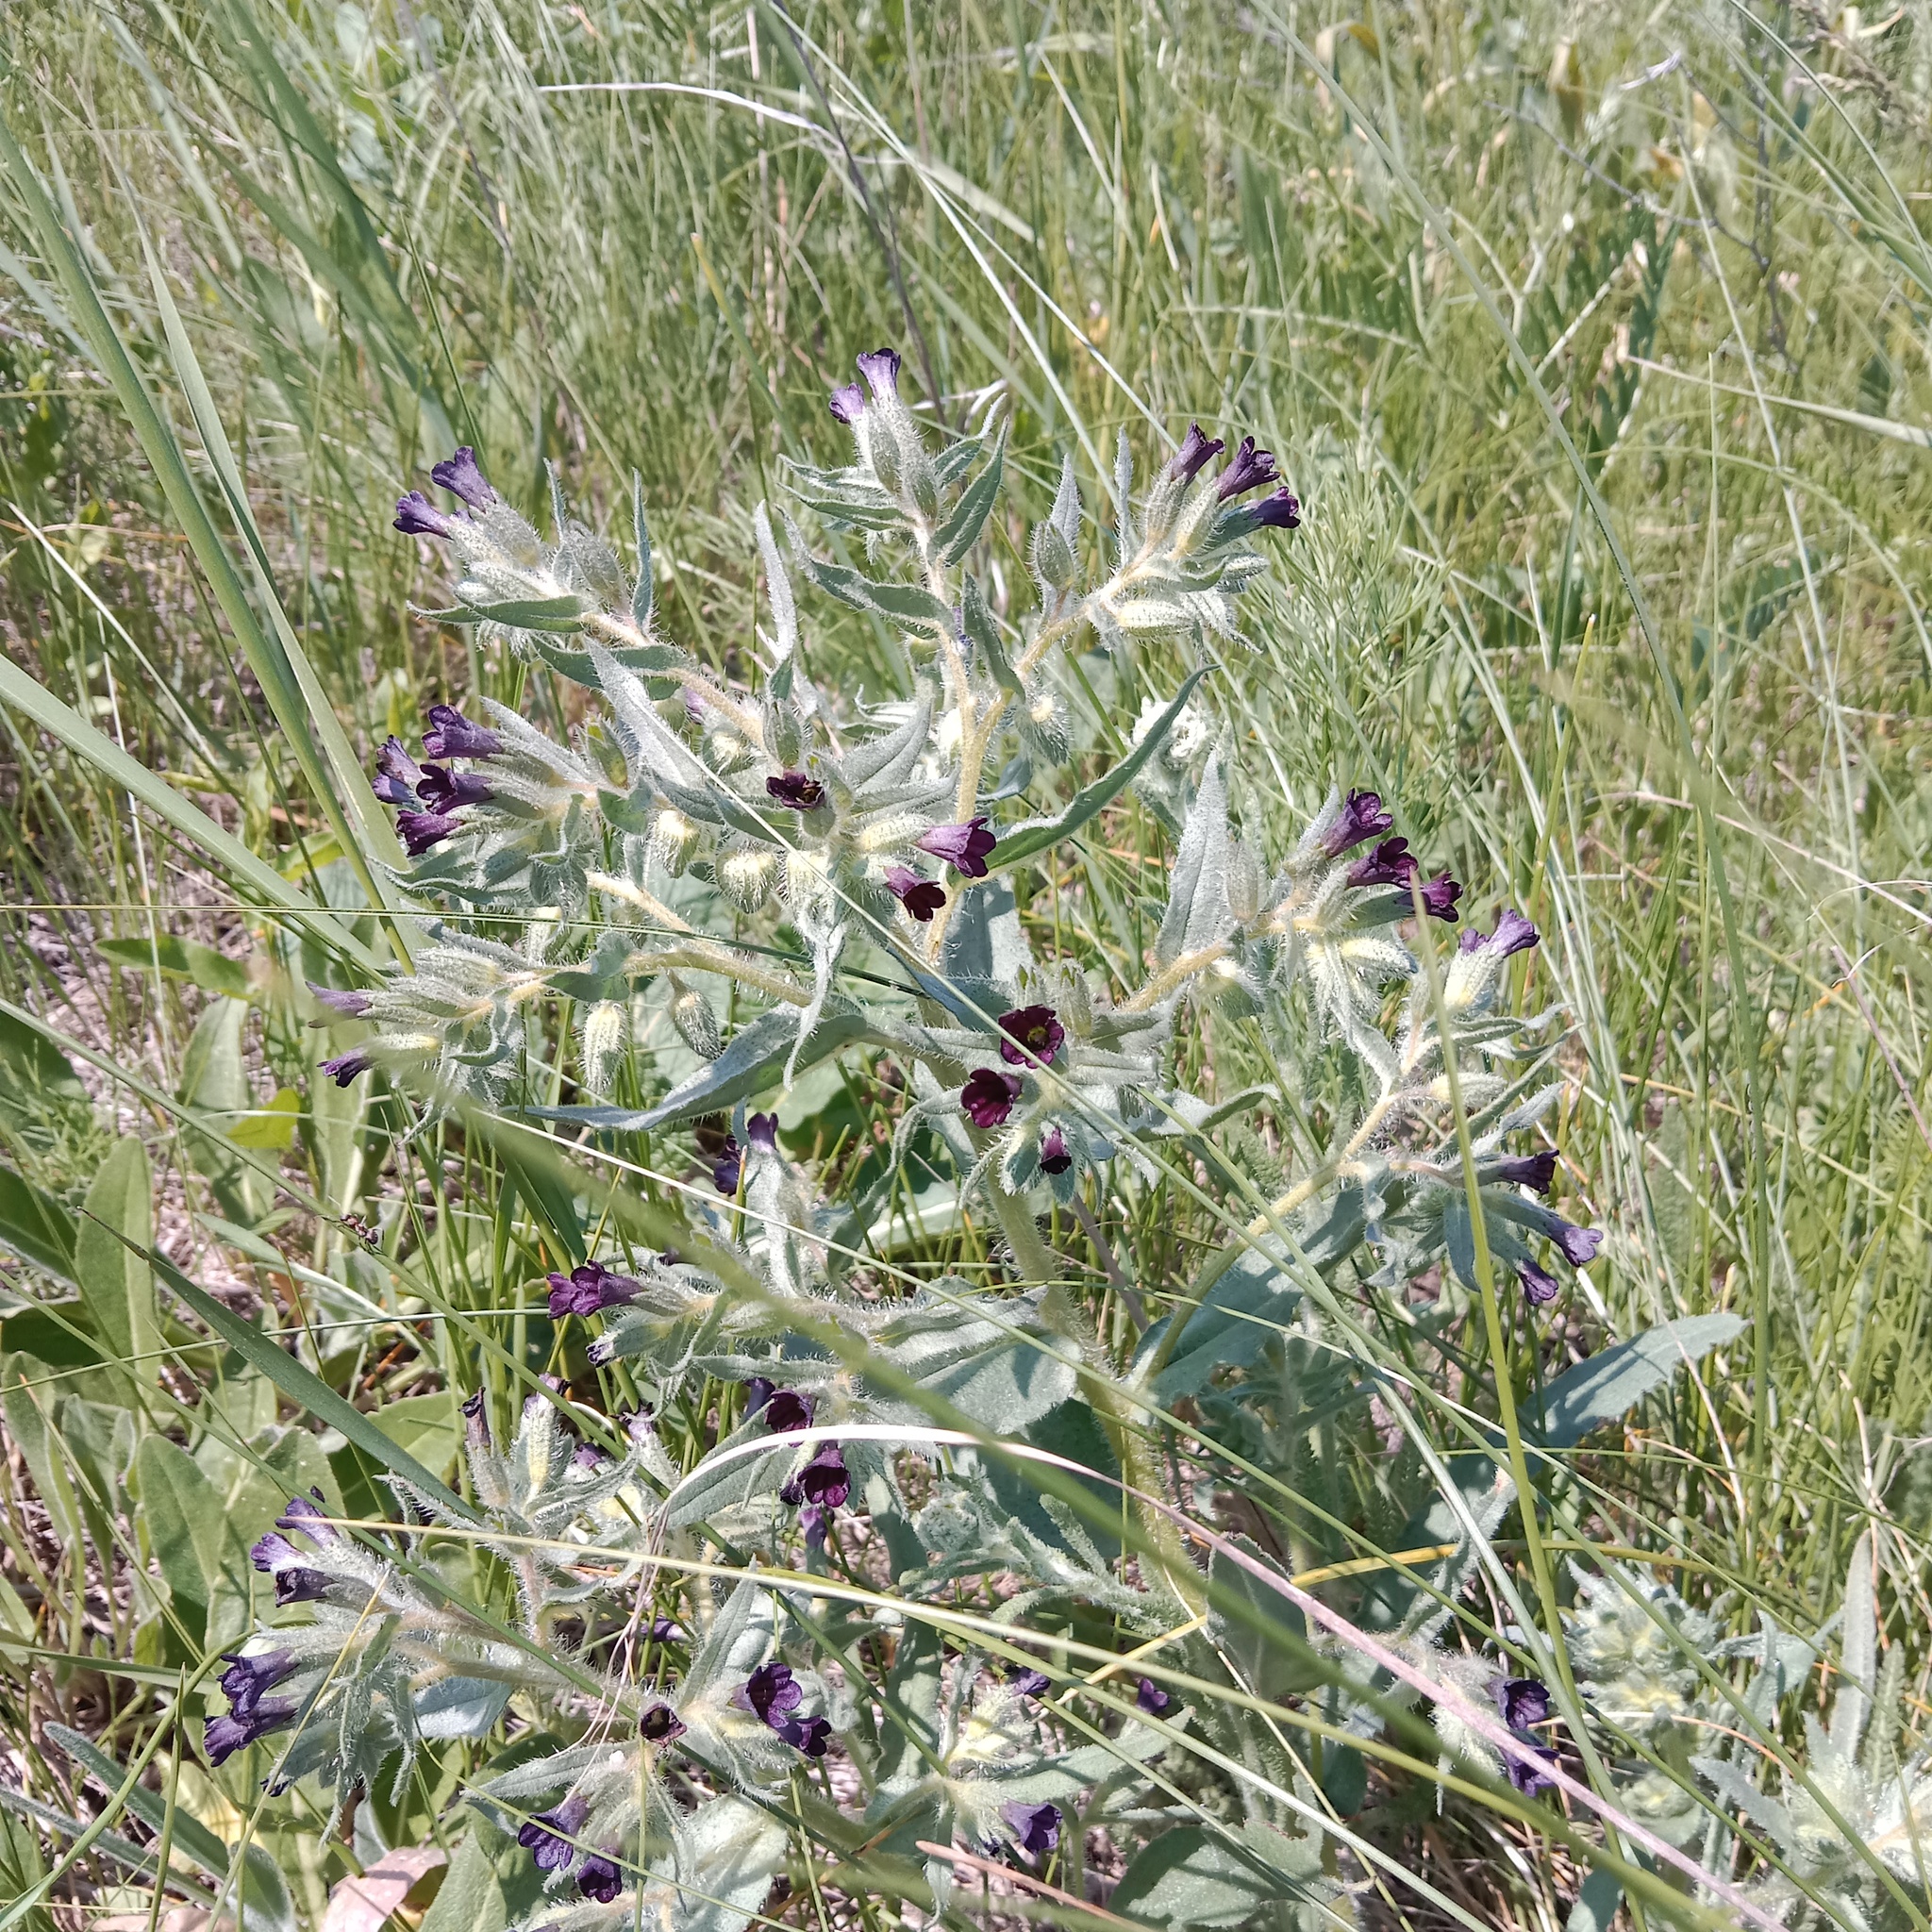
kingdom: Plantae
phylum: Tracheophyta
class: Magnoliopsida
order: Boraginales
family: Boraginaceae
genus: Nonea
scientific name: Nonea pulla
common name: Brown nonea
